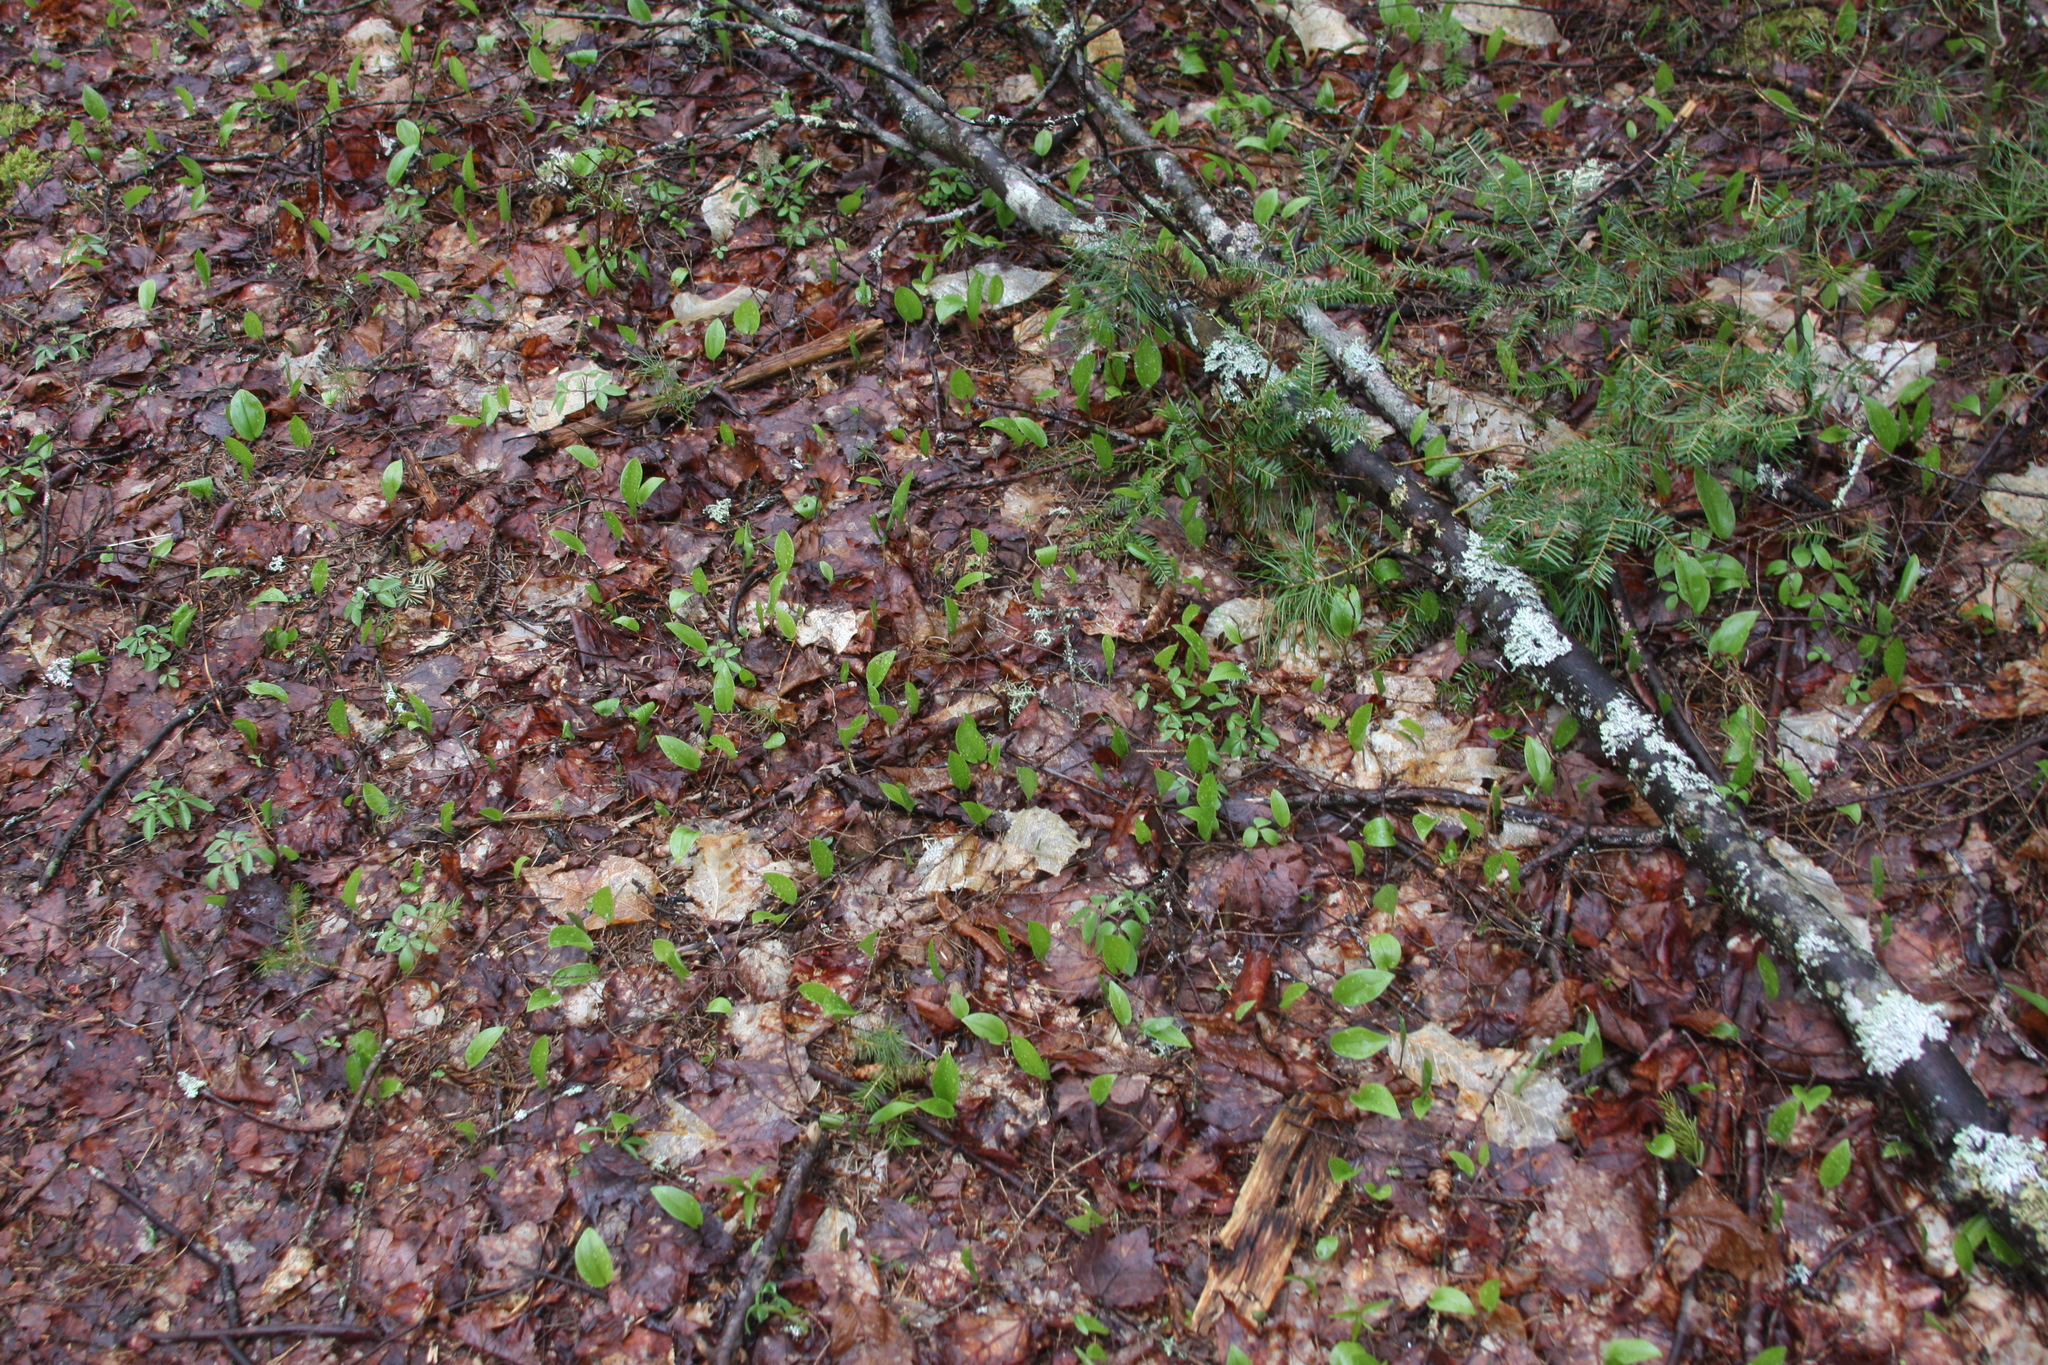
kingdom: Plantae
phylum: Tracheophyta
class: Liliopsida
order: Asparagales
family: Asparagaceae
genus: Maianthemum
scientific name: Maianthemum canadense
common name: False lily-of-the-valley
